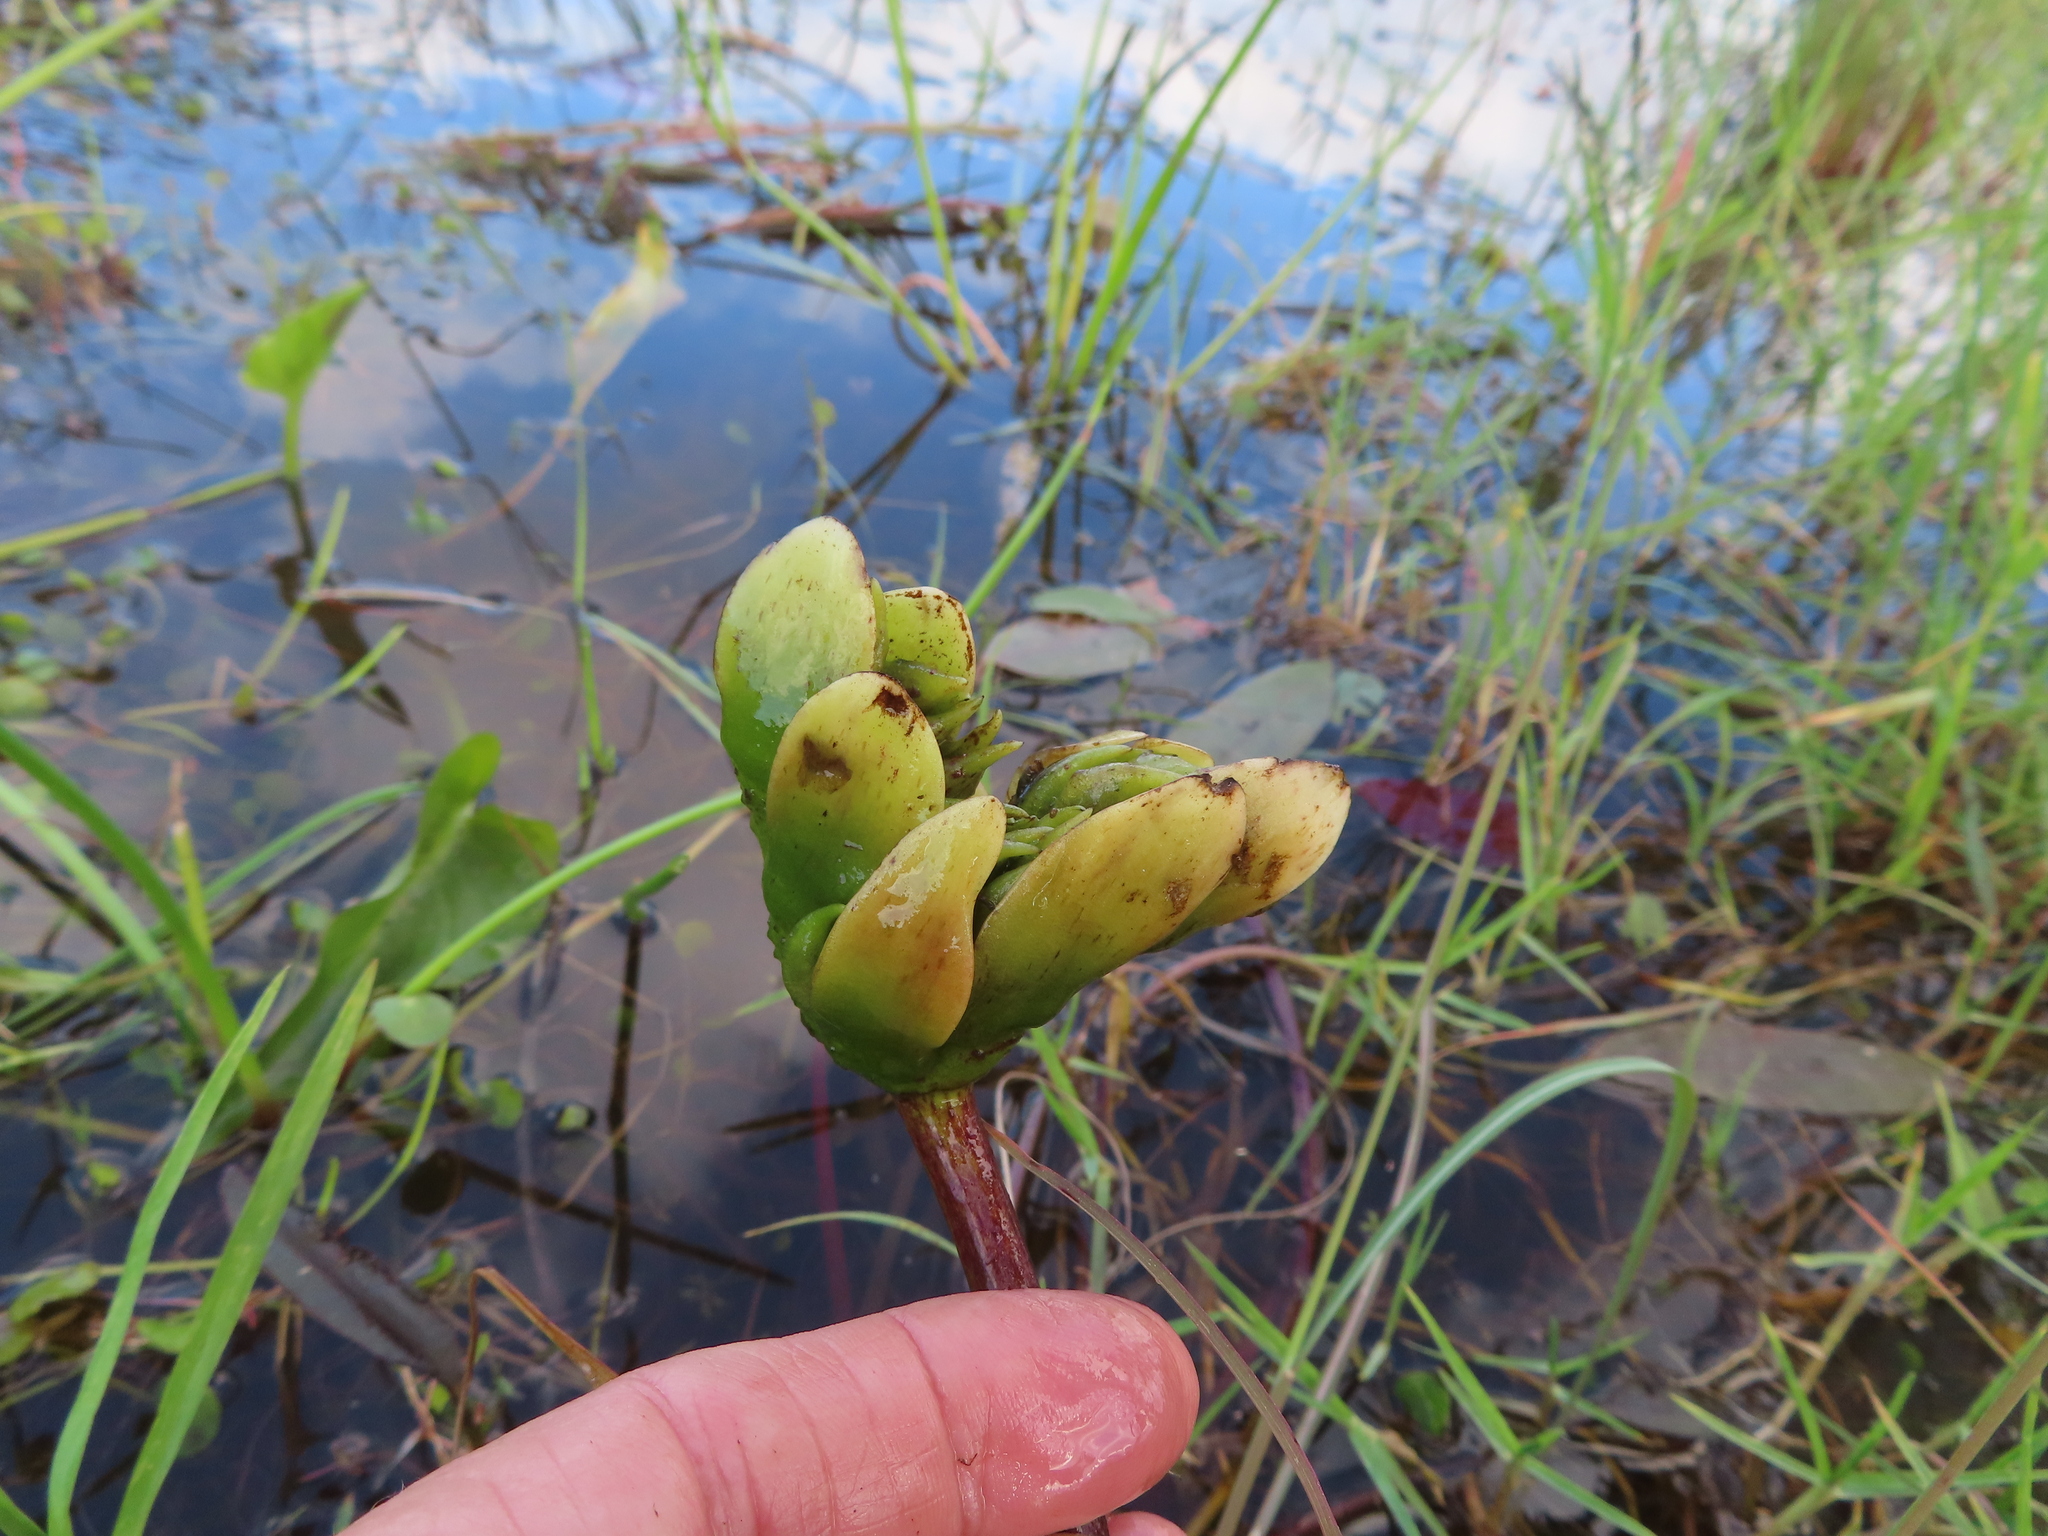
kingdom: Plantae
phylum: Tracheophyta
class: Liliopsida
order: Alismatales
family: Aponogetonaceae
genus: Aponogeton
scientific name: Aponogeton distachyos
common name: Cape-pondweed
